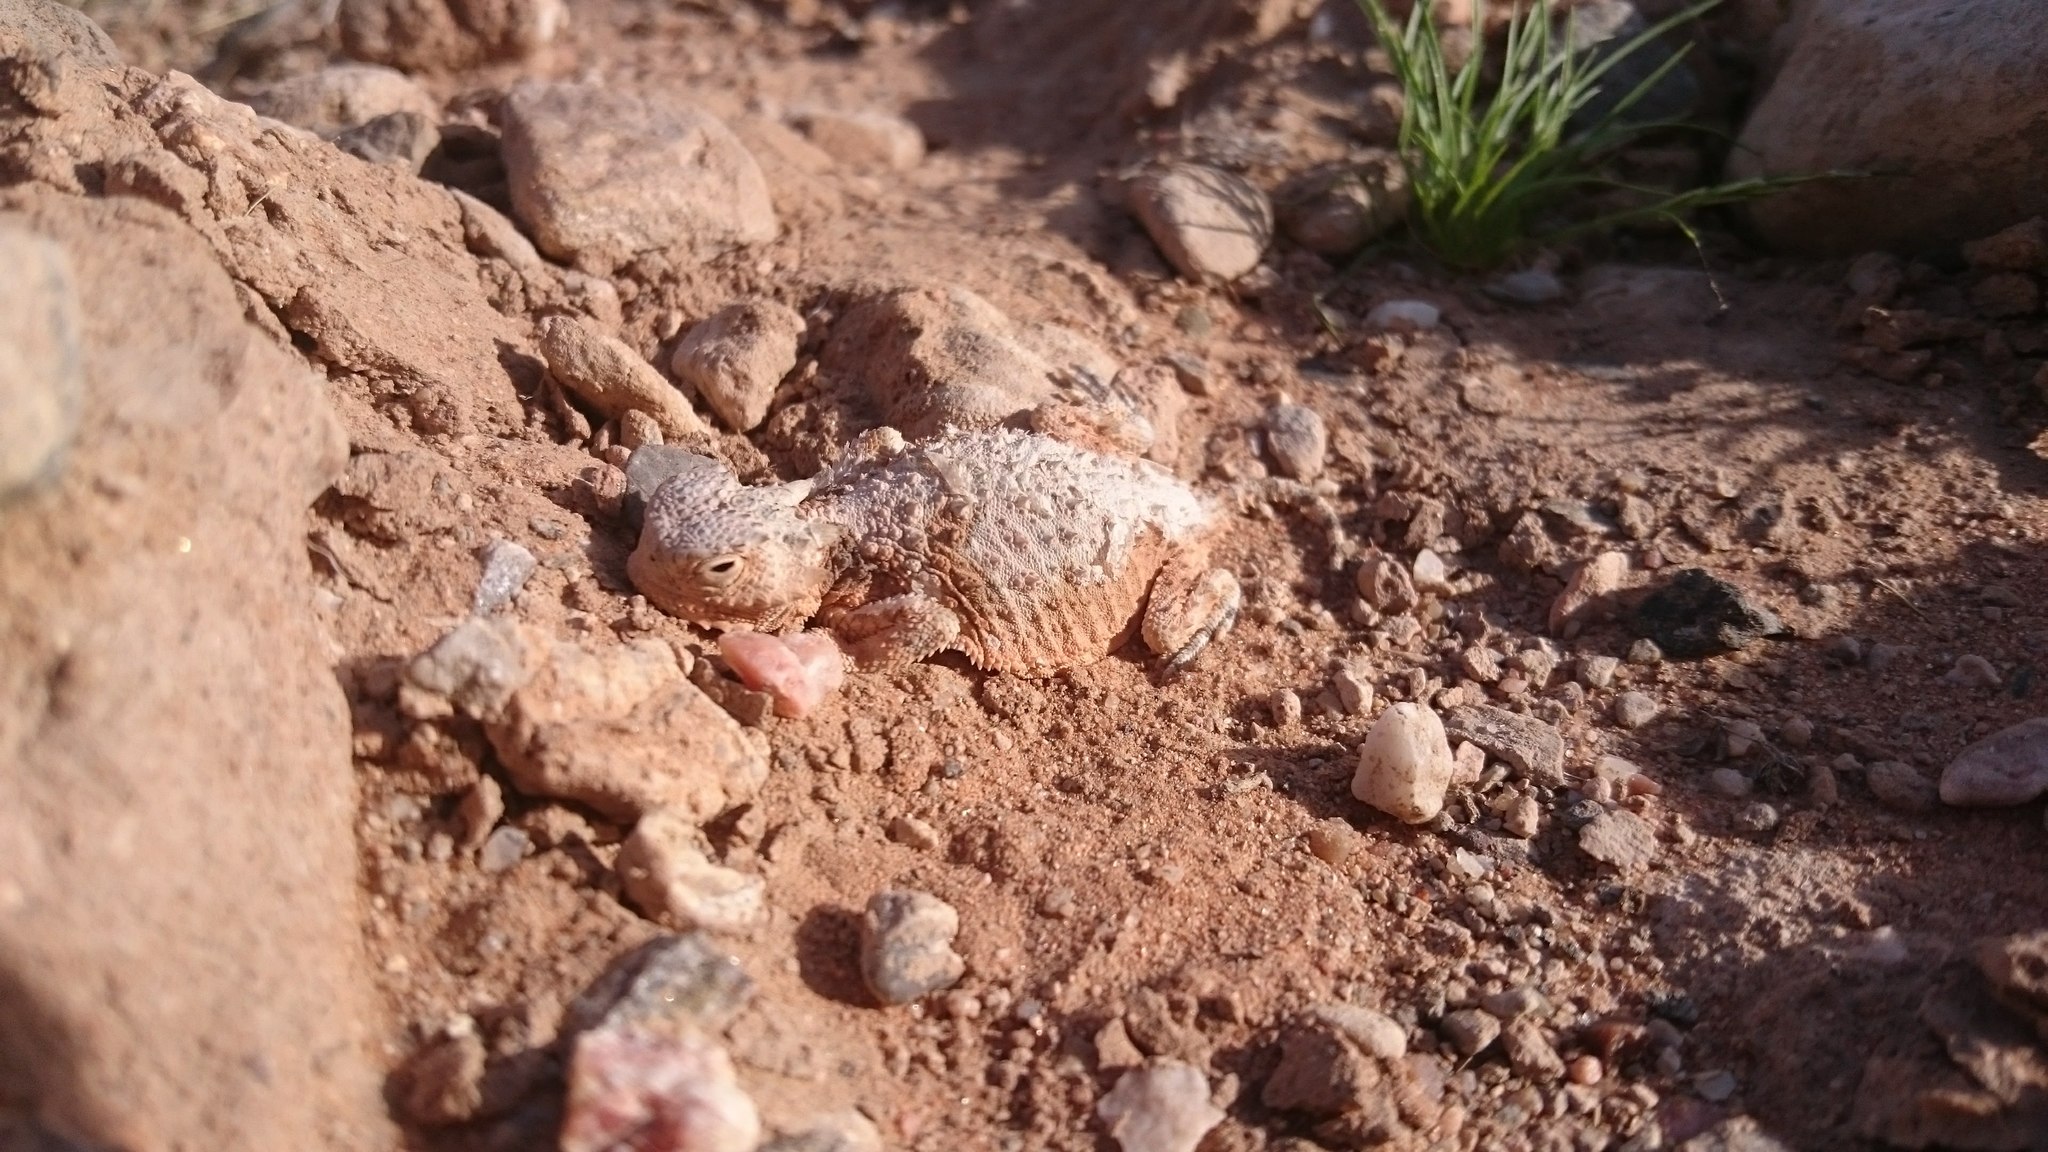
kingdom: Animalia
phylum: Chordata
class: Squamata
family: Phrynosomatidae
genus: Phrynosoma
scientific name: Phrynosoma platyrhinos
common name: Desert horned lizard
